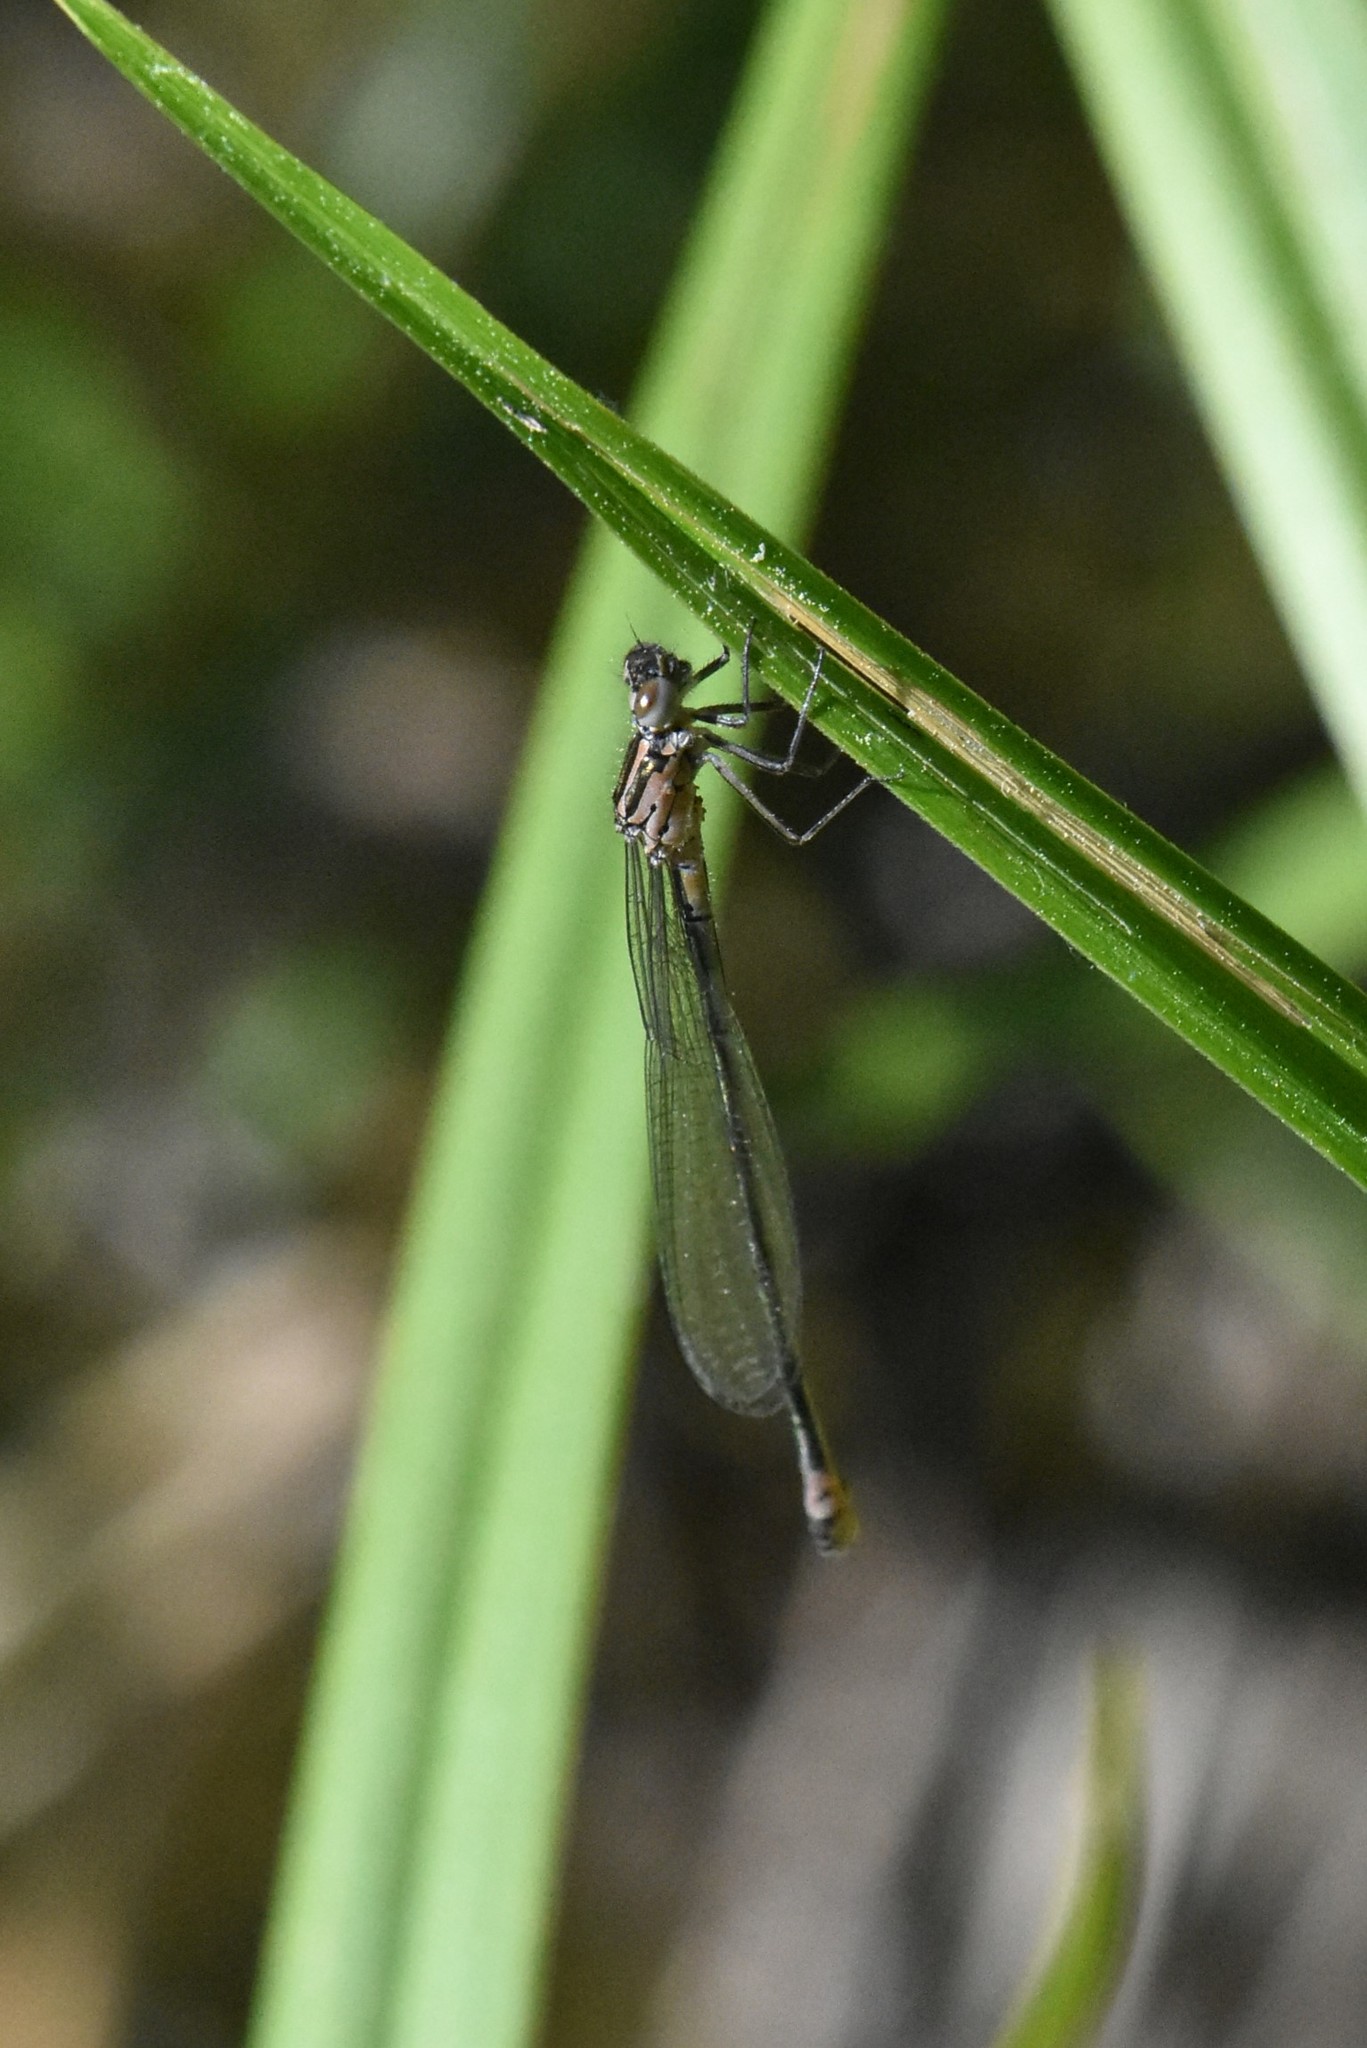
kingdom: Animalia
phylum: Arthropoda
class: Insecta
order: Odonata
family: Coenagrionidae
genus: Coenagrion
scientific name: Coenagrion pulchellum
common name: Variable bluet
